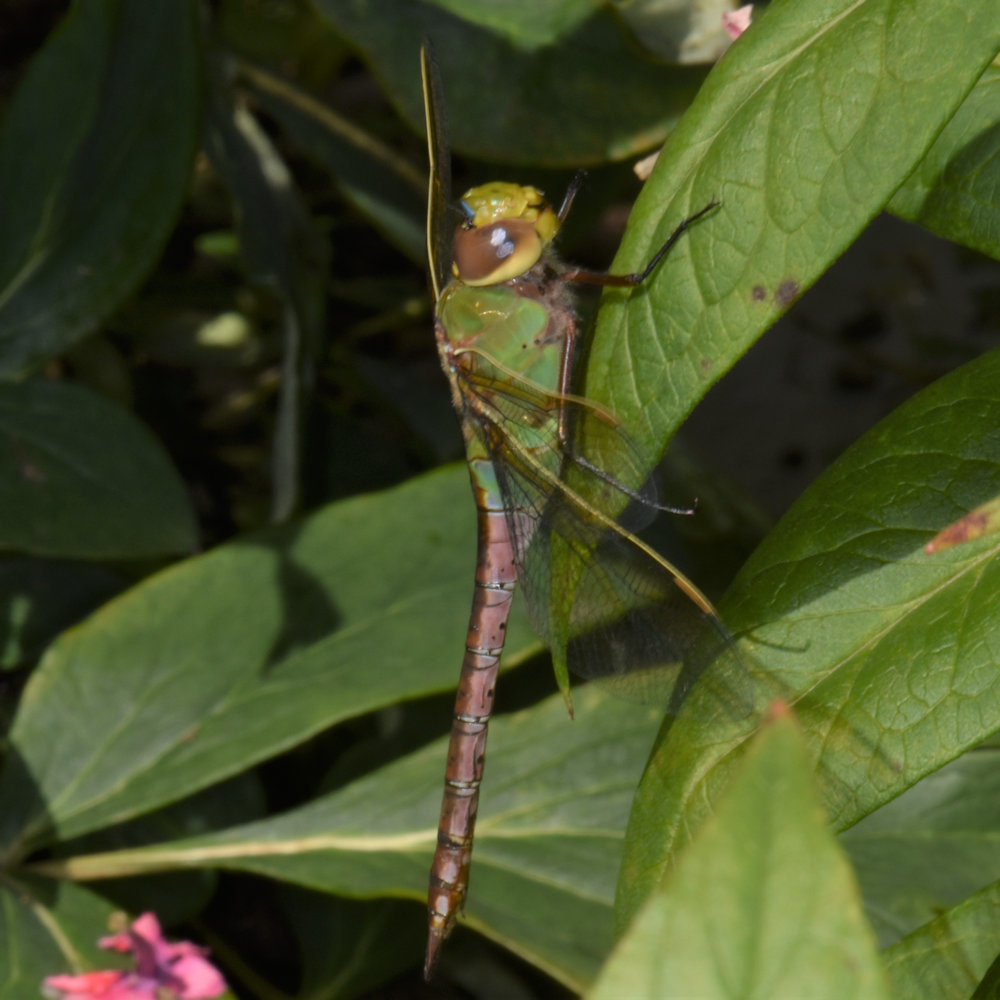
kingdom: Animalia
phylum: Arthropoda
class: Insecta
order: Odonata
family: Aeshnidae
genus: Anax
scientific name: Anax junius
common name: Common green darner
